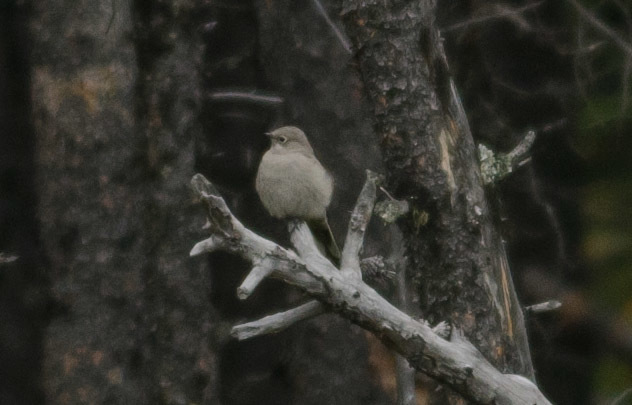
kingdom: Animalia
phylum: Chordata
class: Aves
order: Passeriformes
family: Turdidae
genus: Myadestes
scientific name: Myadestes townsendi
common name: Townsend's solitaire
